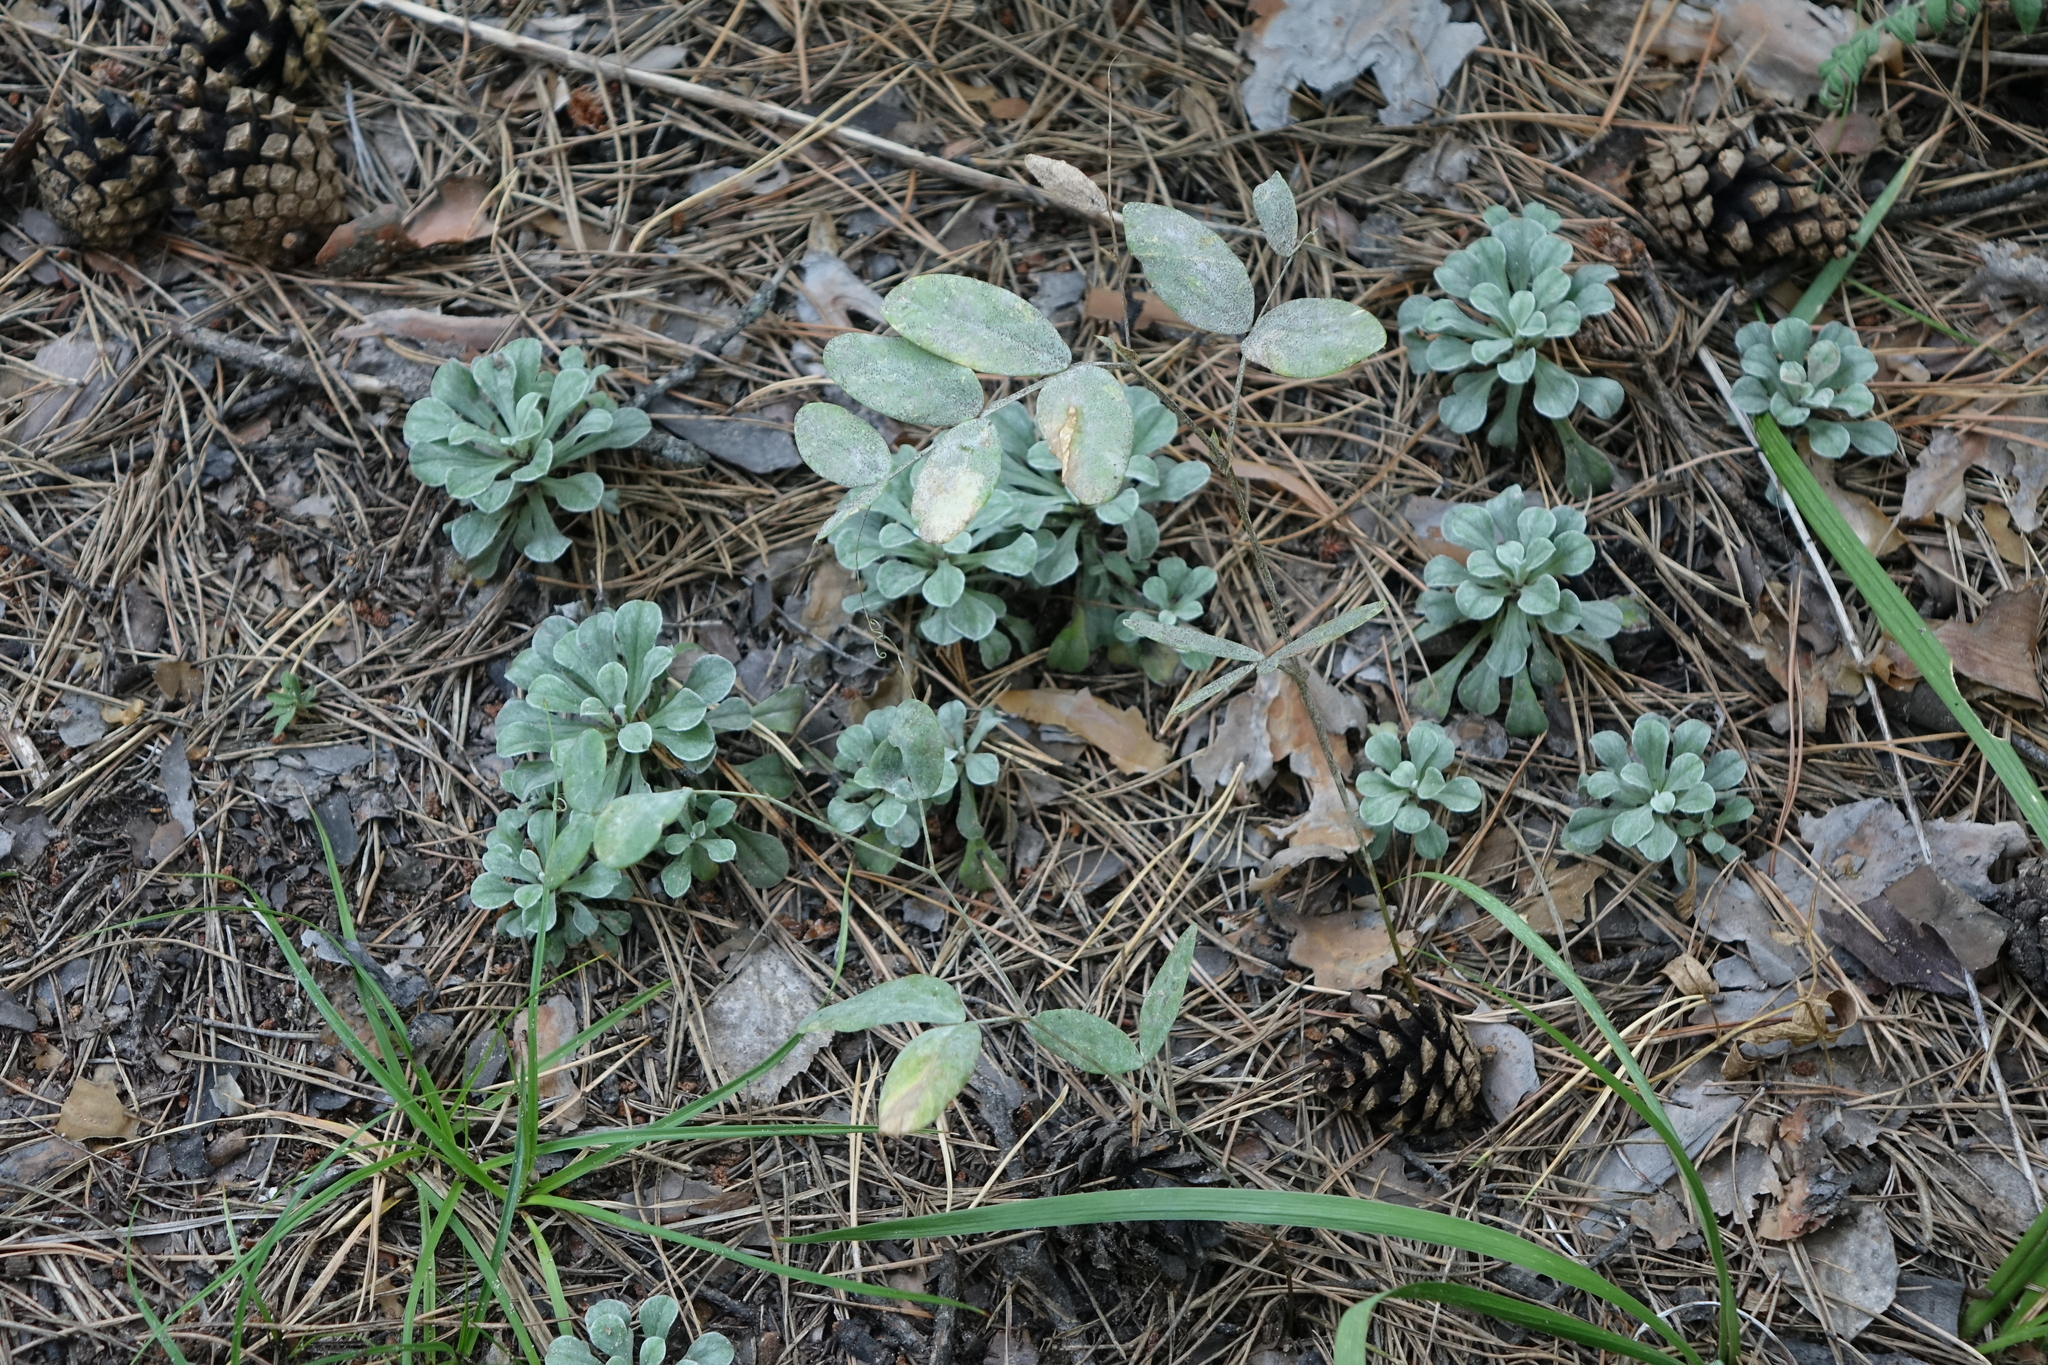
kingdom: Plantae
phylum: Tracheophyta
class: Magnoliopsida
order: Asterales
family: Asteraceae
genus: Antennaria
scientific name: Antennaria dioica
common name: Mountain everlasting
